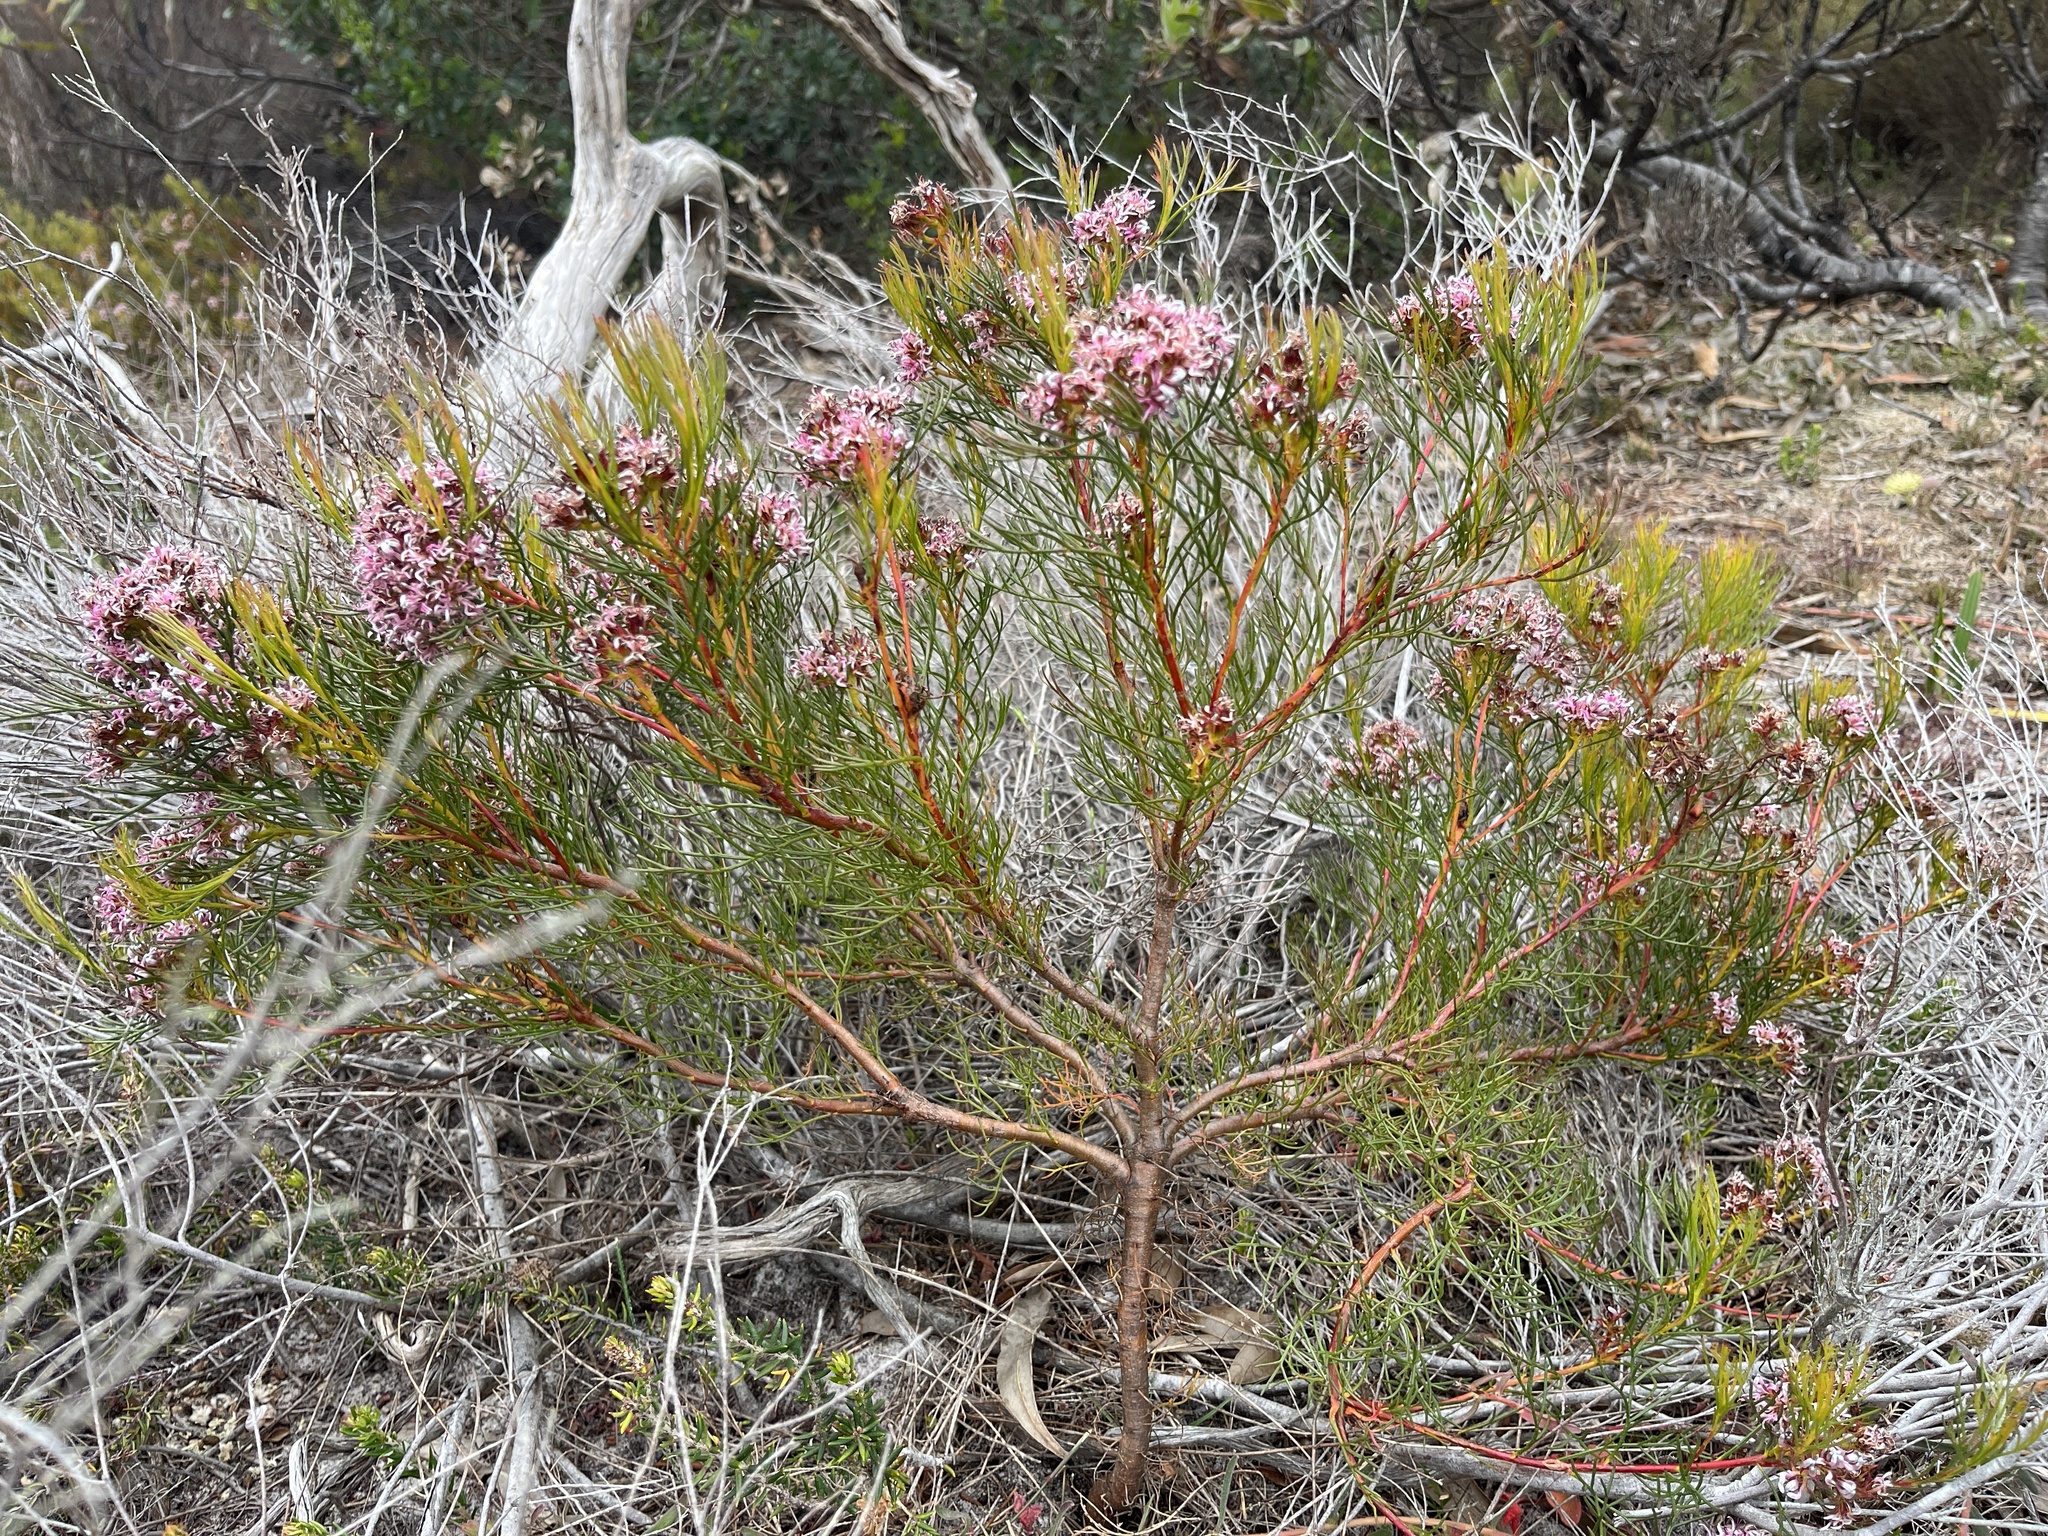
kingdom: Plantae
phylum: Tracheophyta
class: Magnoliopsida
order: Proteales
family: Proteaceae
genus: Serruria
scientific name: Serruria bolusii
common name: Agulhas spiderhead
